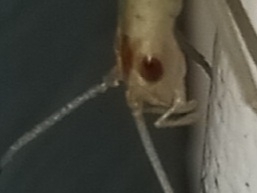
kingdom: Animalia
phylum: Arthropoda
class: Insecta
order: Orthoptera
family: Gryllidae
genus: Oecanthus
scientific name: Oecanthus niveus
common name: Narrow-winged tree cricket
